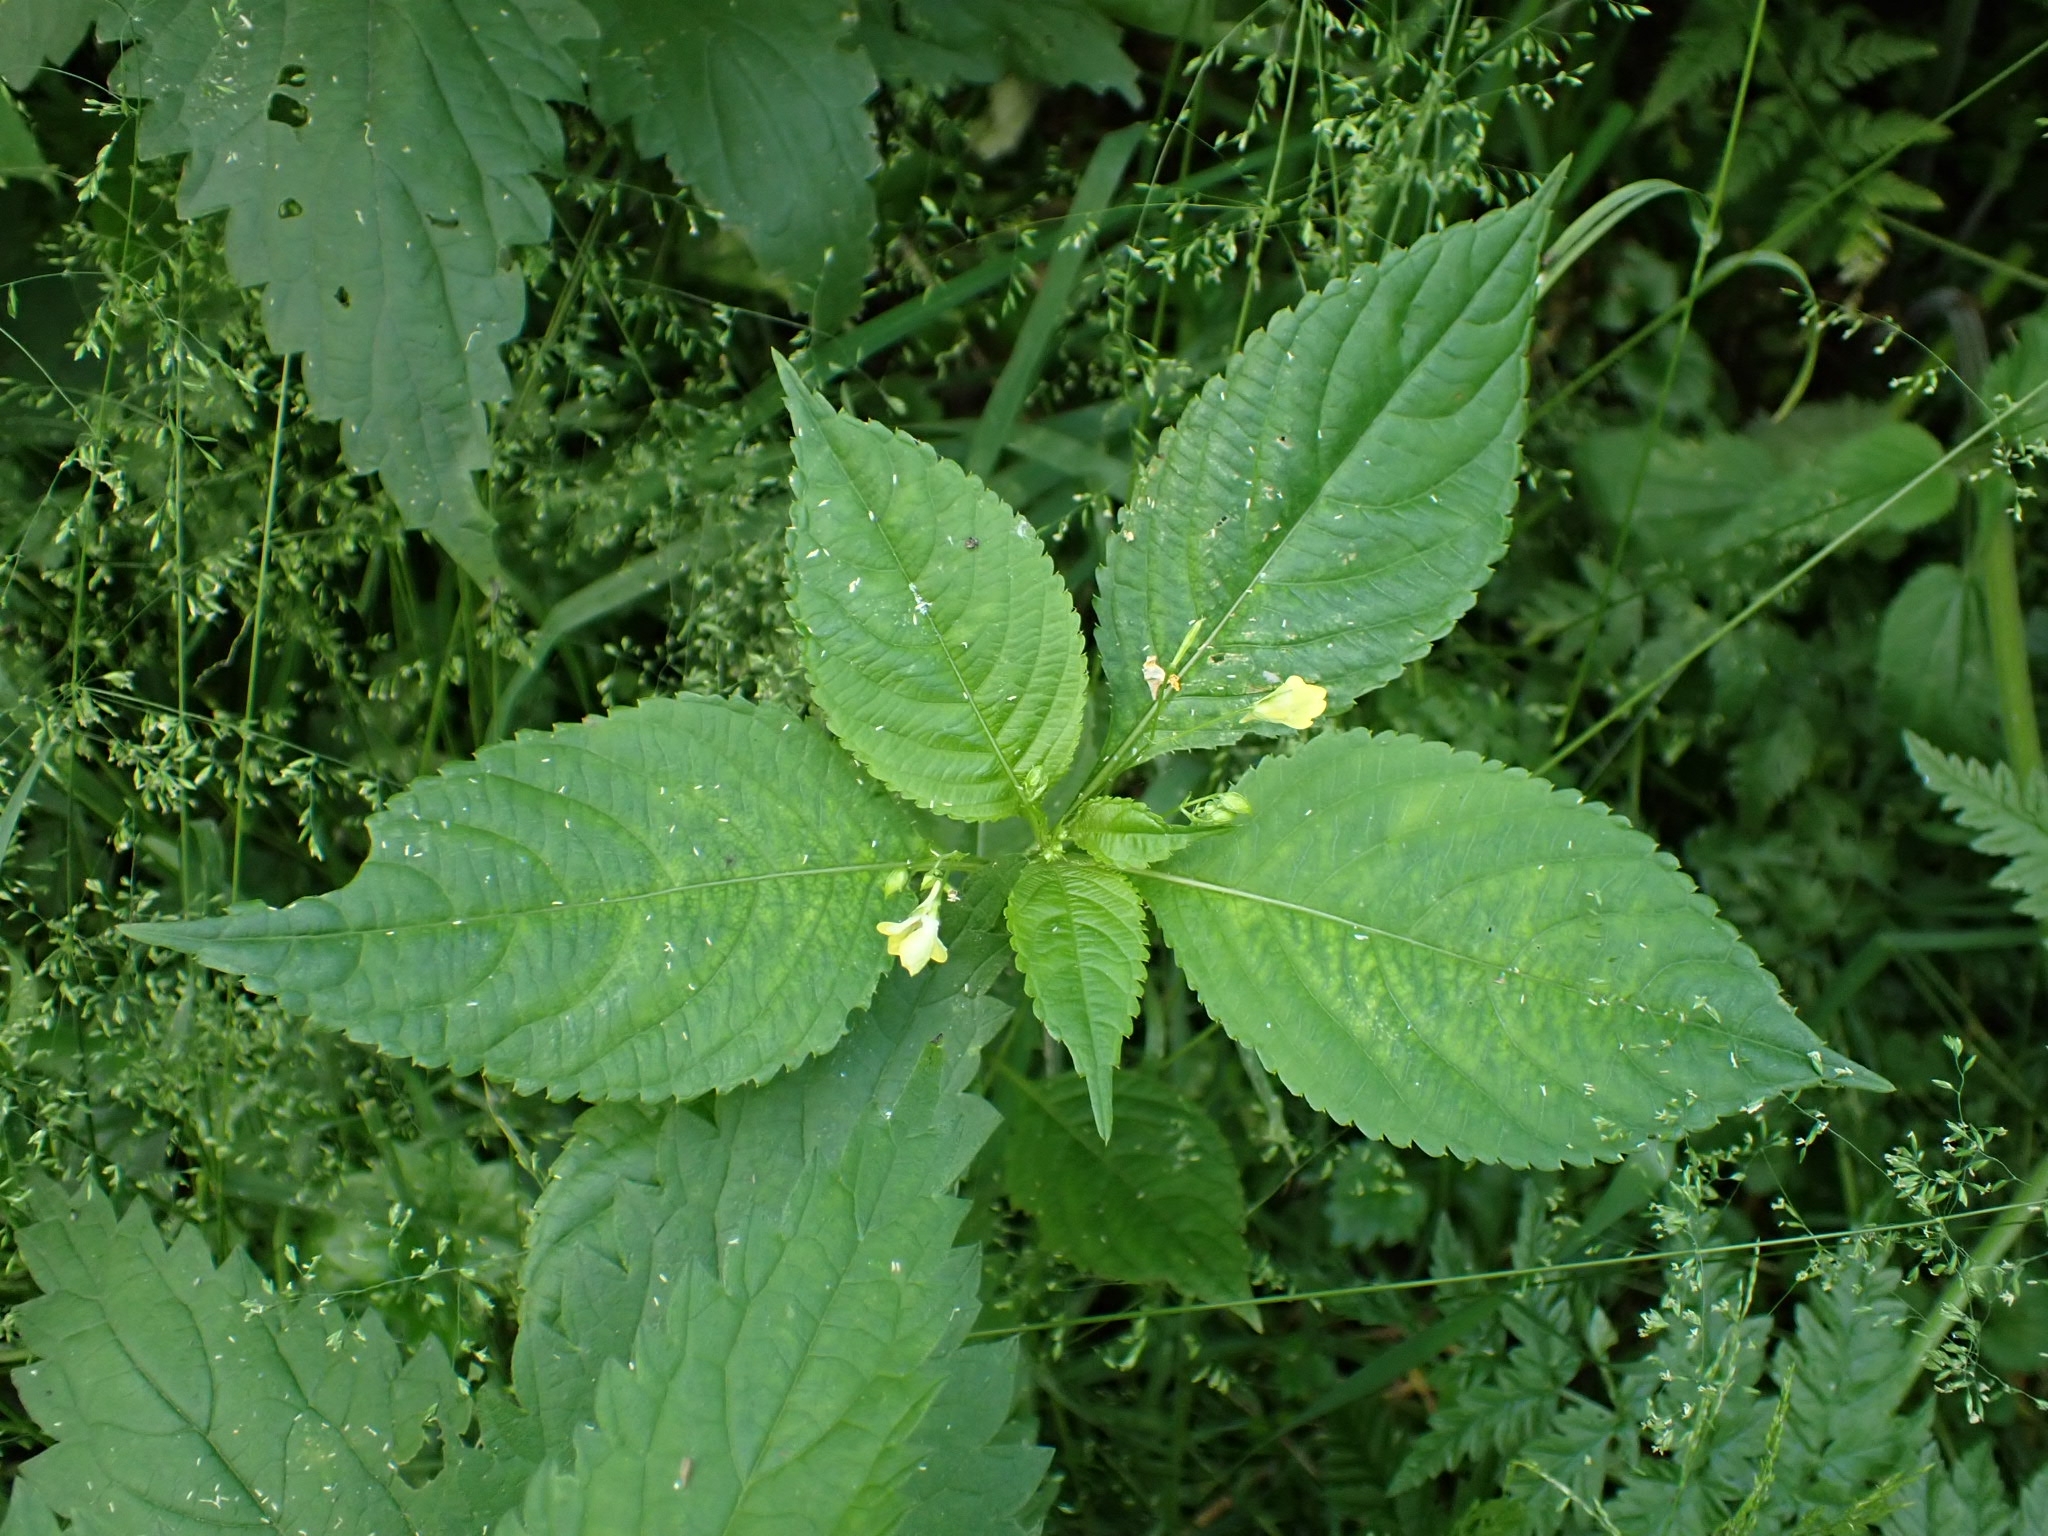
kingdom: Plantae
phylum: Tracheophyta
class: Magnoliopsida
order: Ericales
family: Balsaminaceae
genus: Impatiens
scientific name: Impatiens parviflora
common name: Small balsam
